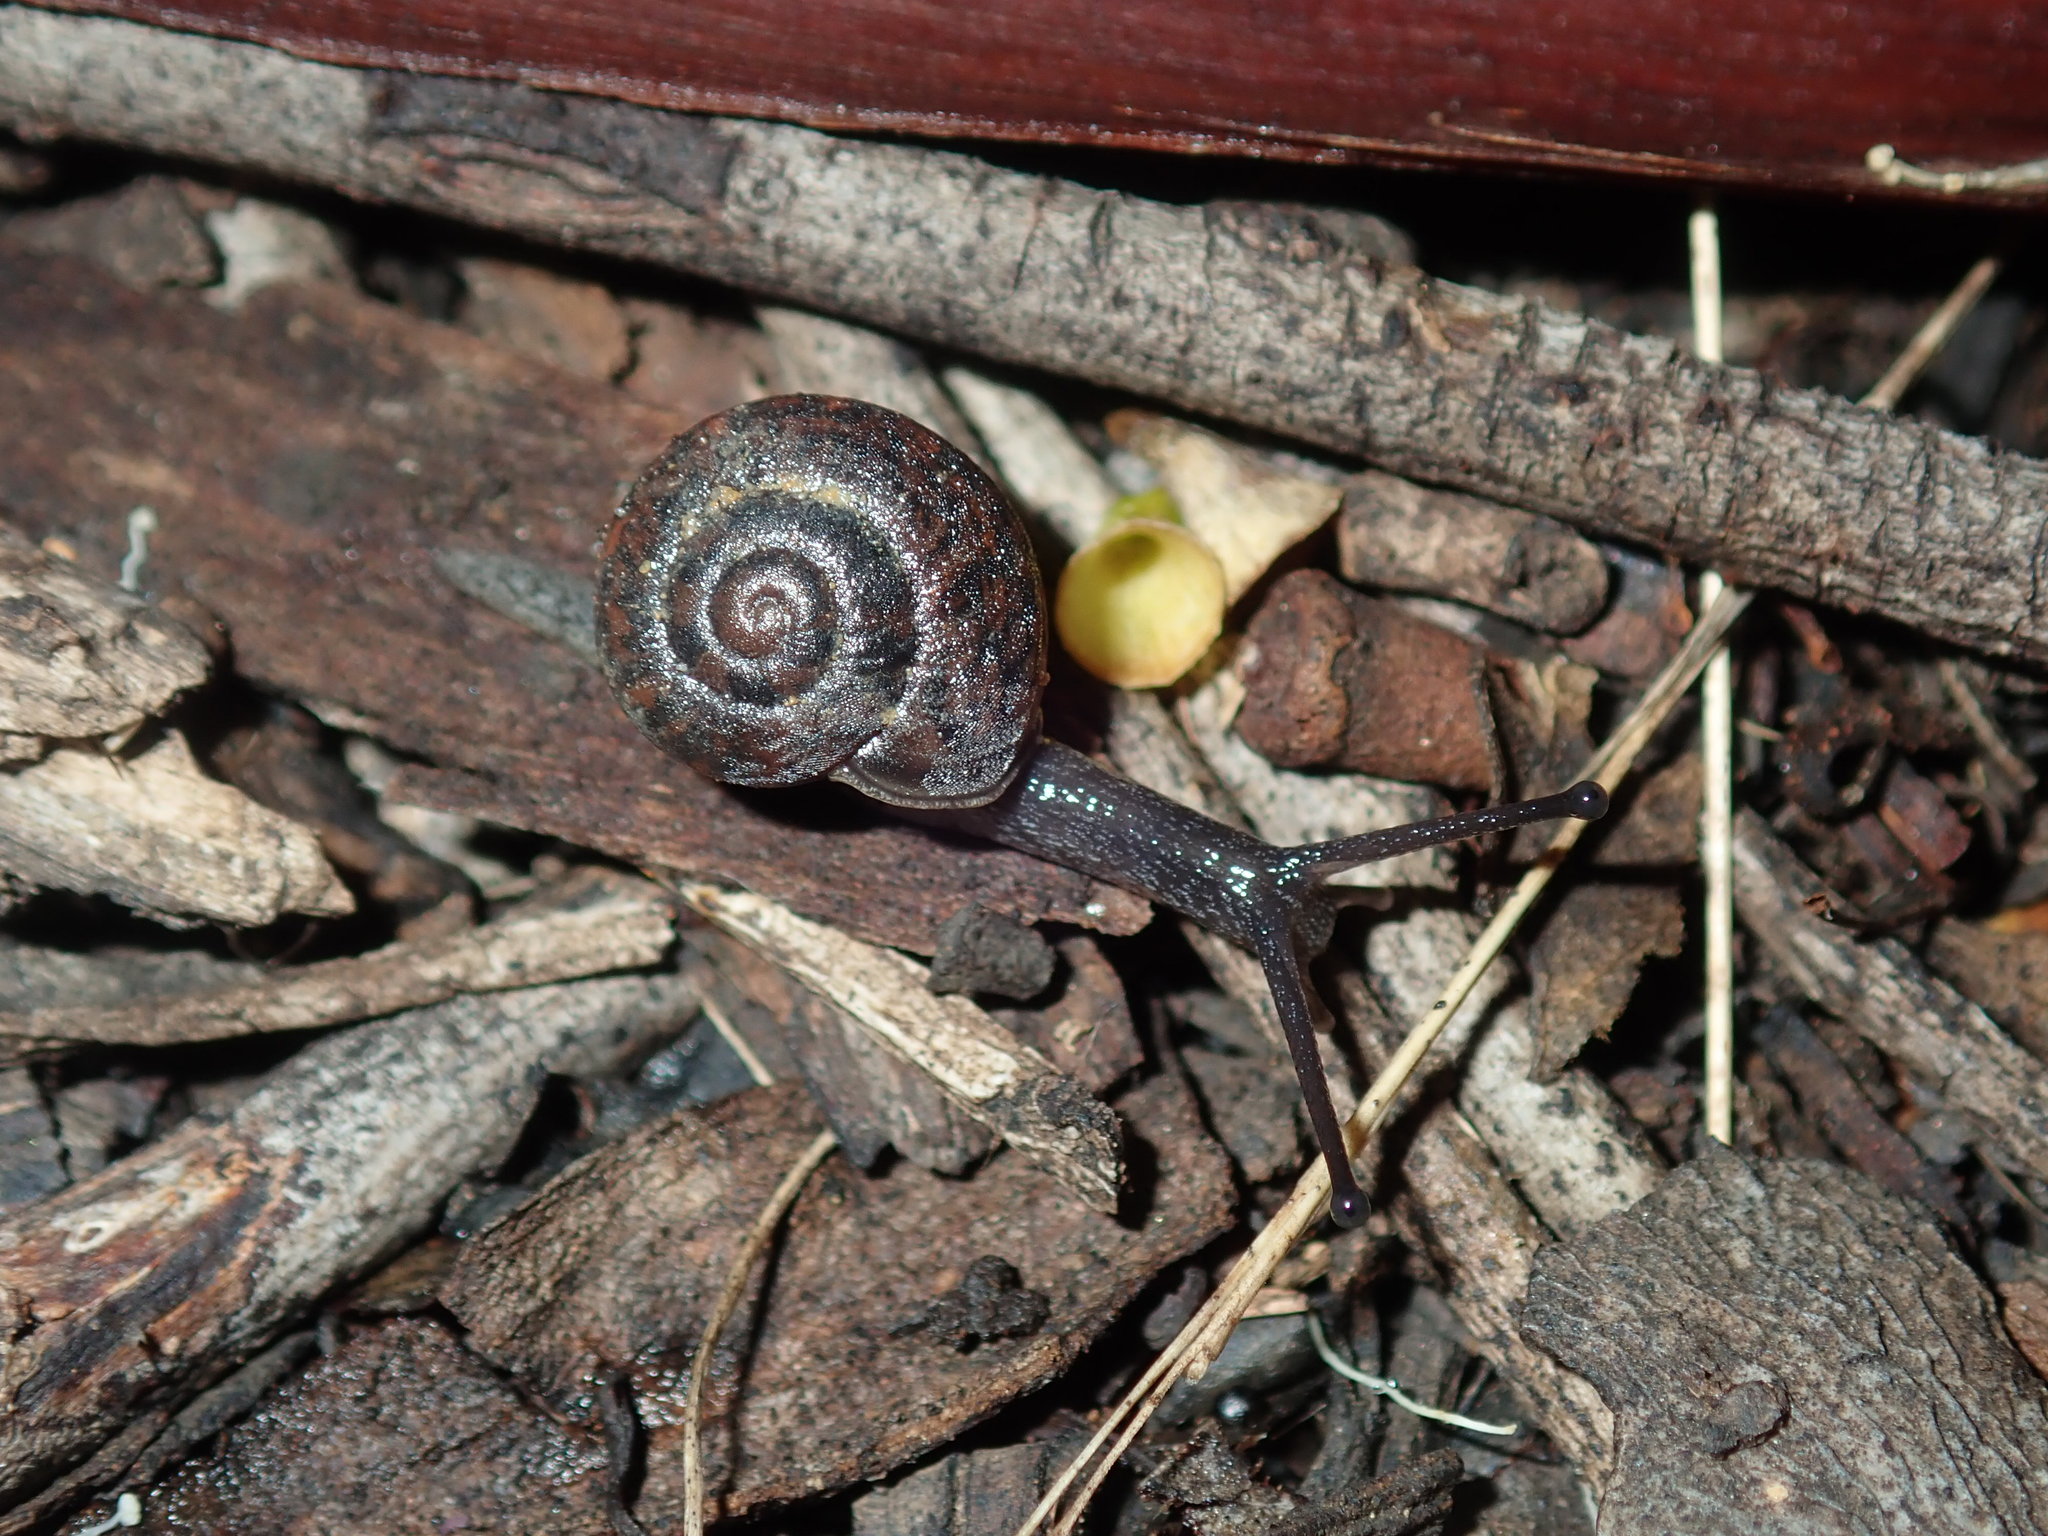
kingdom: Animalia
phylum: Mollusca
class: Gastropoda
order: Stylommatophora
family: Camaenidae
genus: Sauroconcha
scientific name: Sauroconcha sheai
